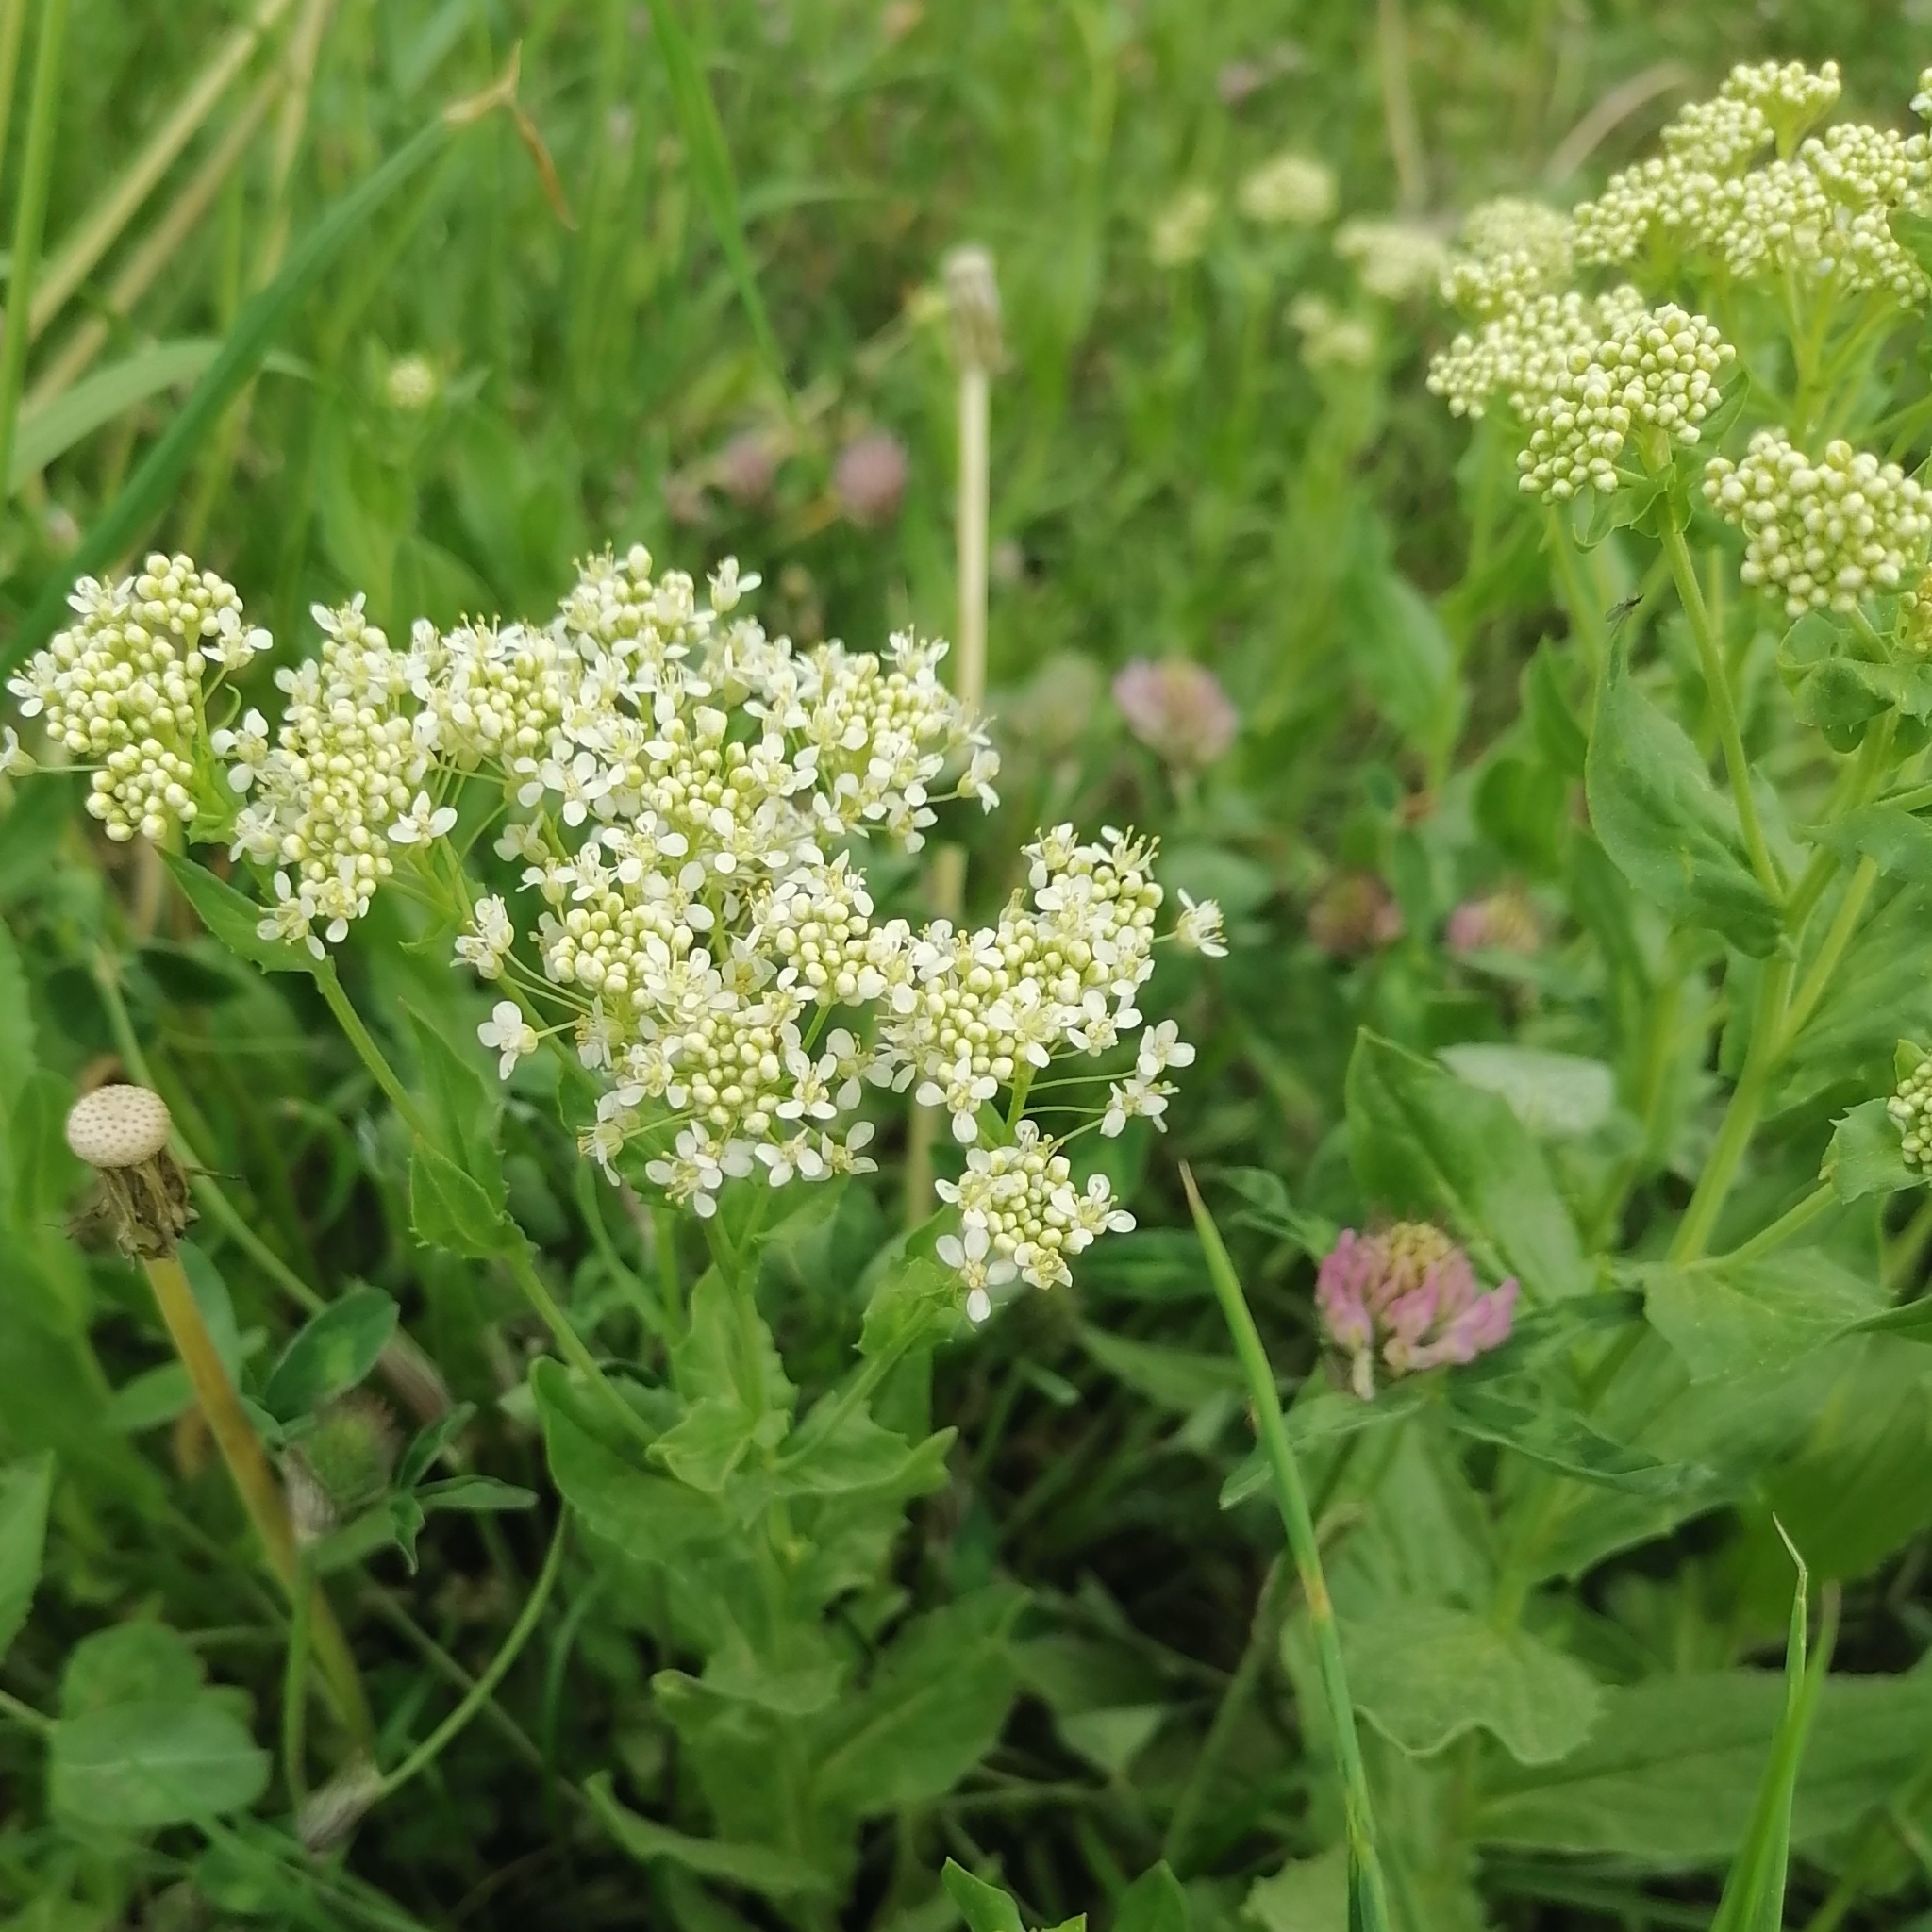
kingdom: Plantae
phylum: Tracheophyta
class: Magnoliopsida
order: Brassicales
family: Brassicaceae
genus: Lepidium
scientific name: Lepidium draba
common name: Hoary cress
